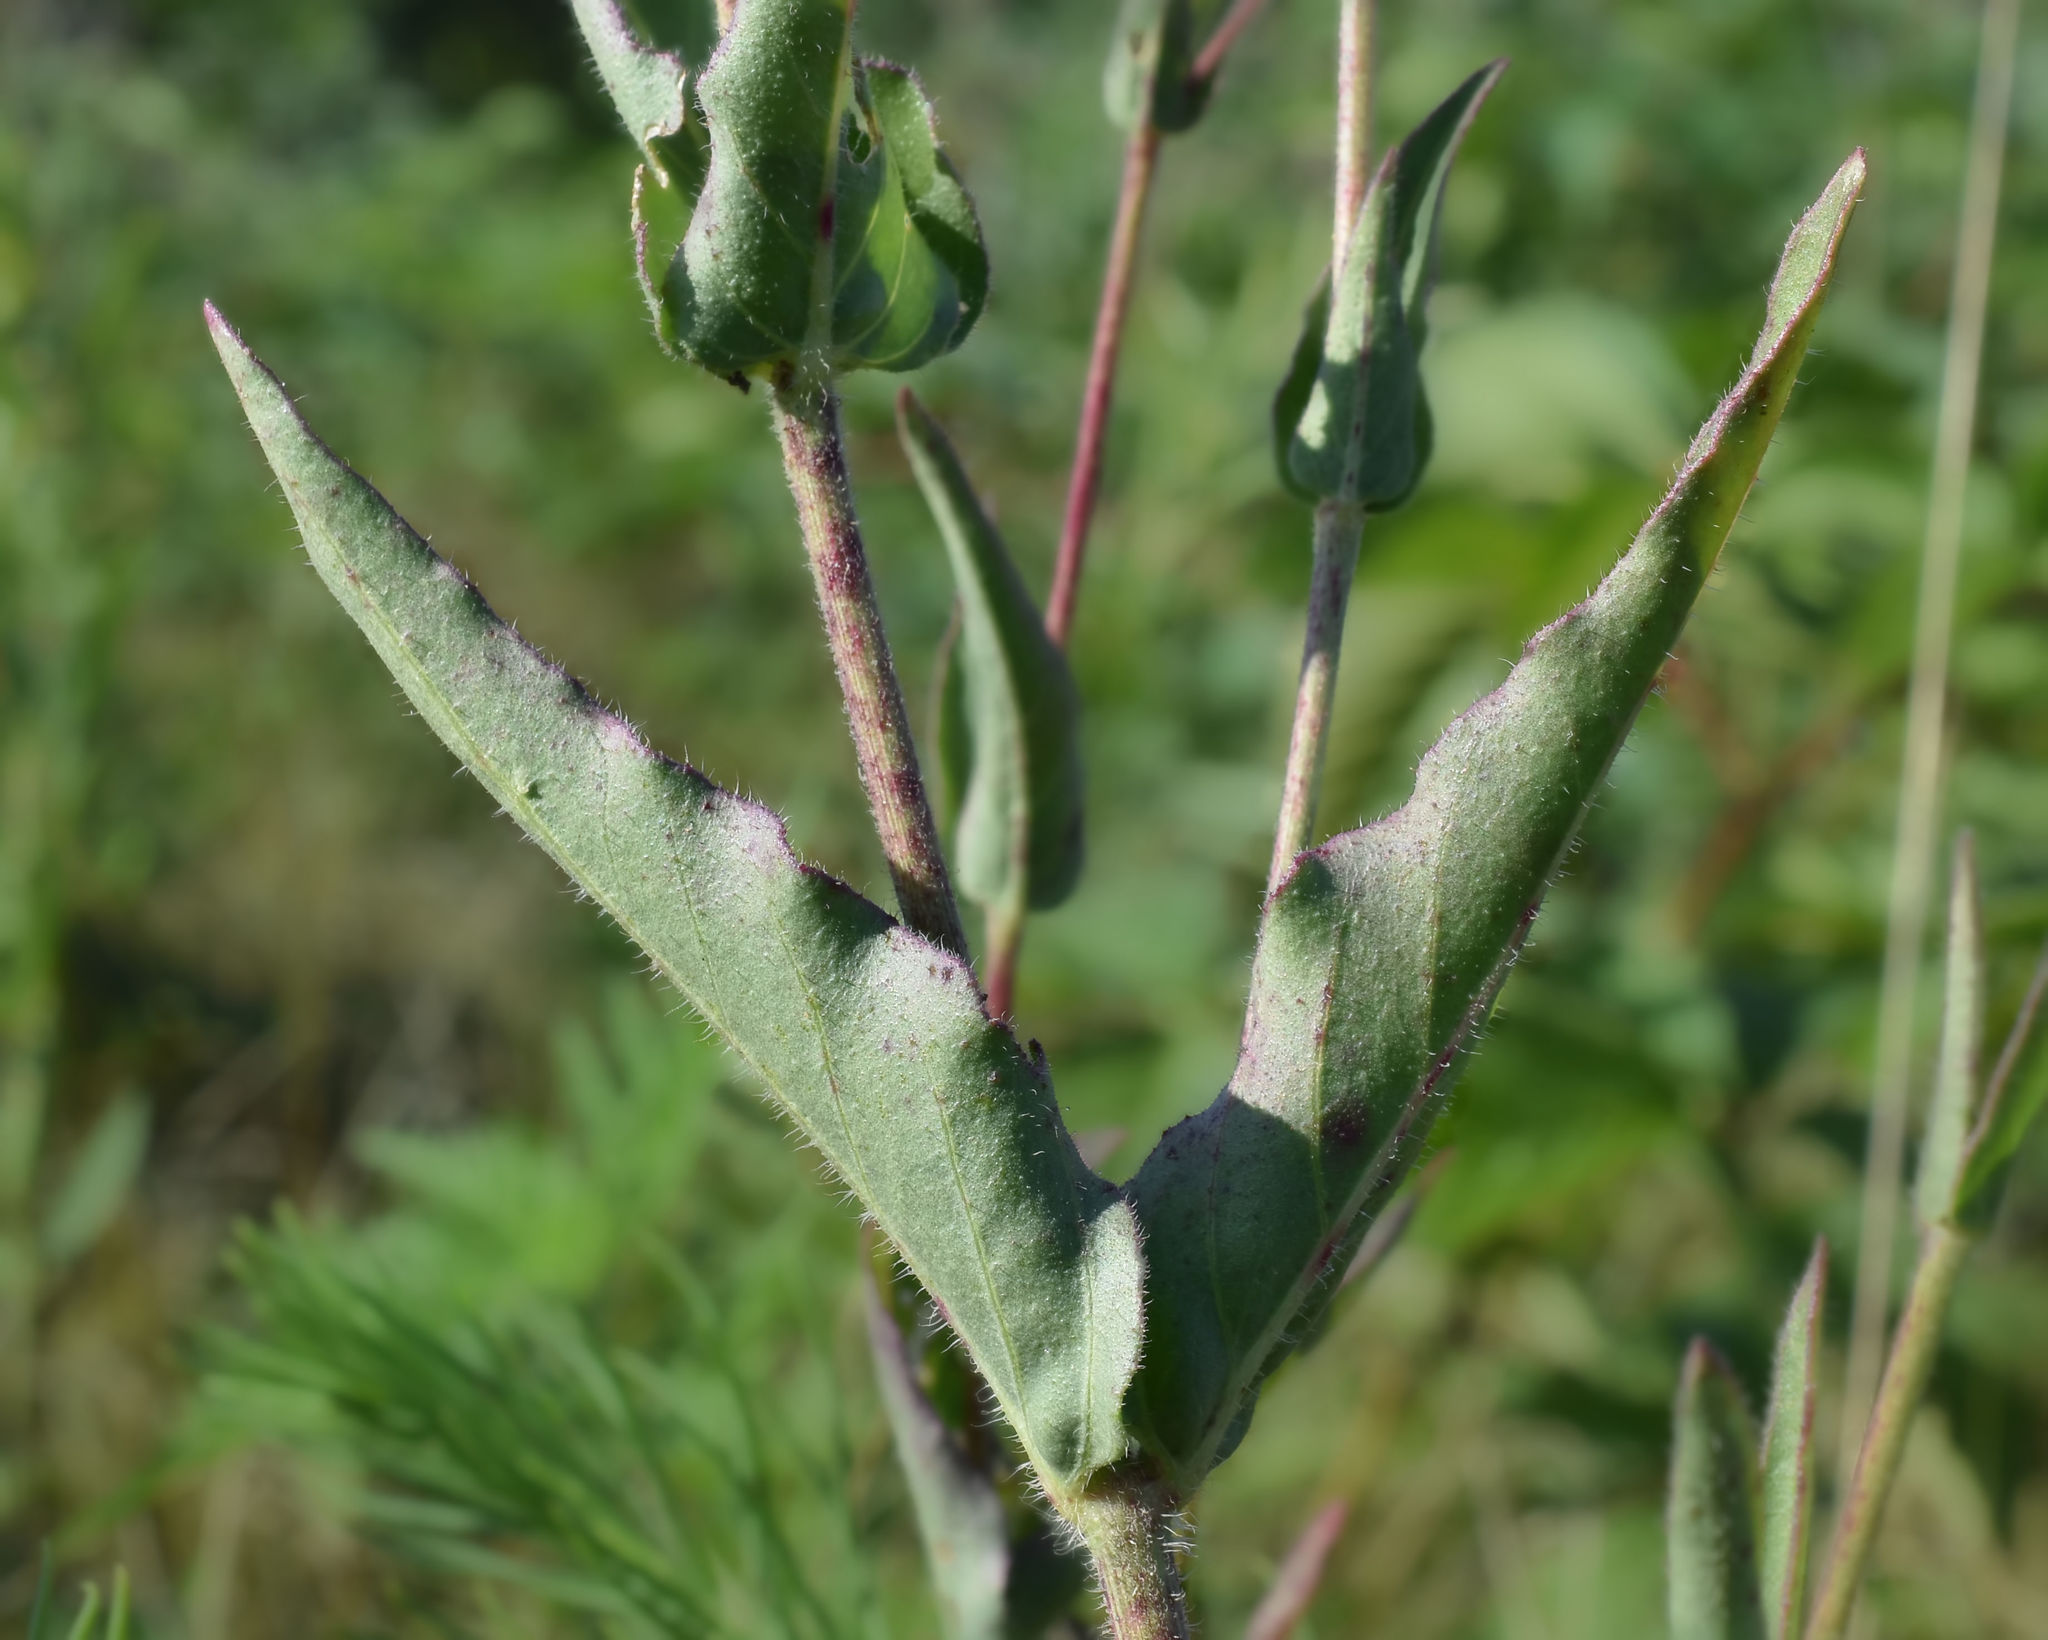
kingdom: Plantae
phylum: Tracheophyta
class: Magnoliopsida
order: Caryophyllales
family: Nyctaginaceae
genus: Mirabilis
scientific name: Mirabilis albida
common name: Hairy four-o'clock
